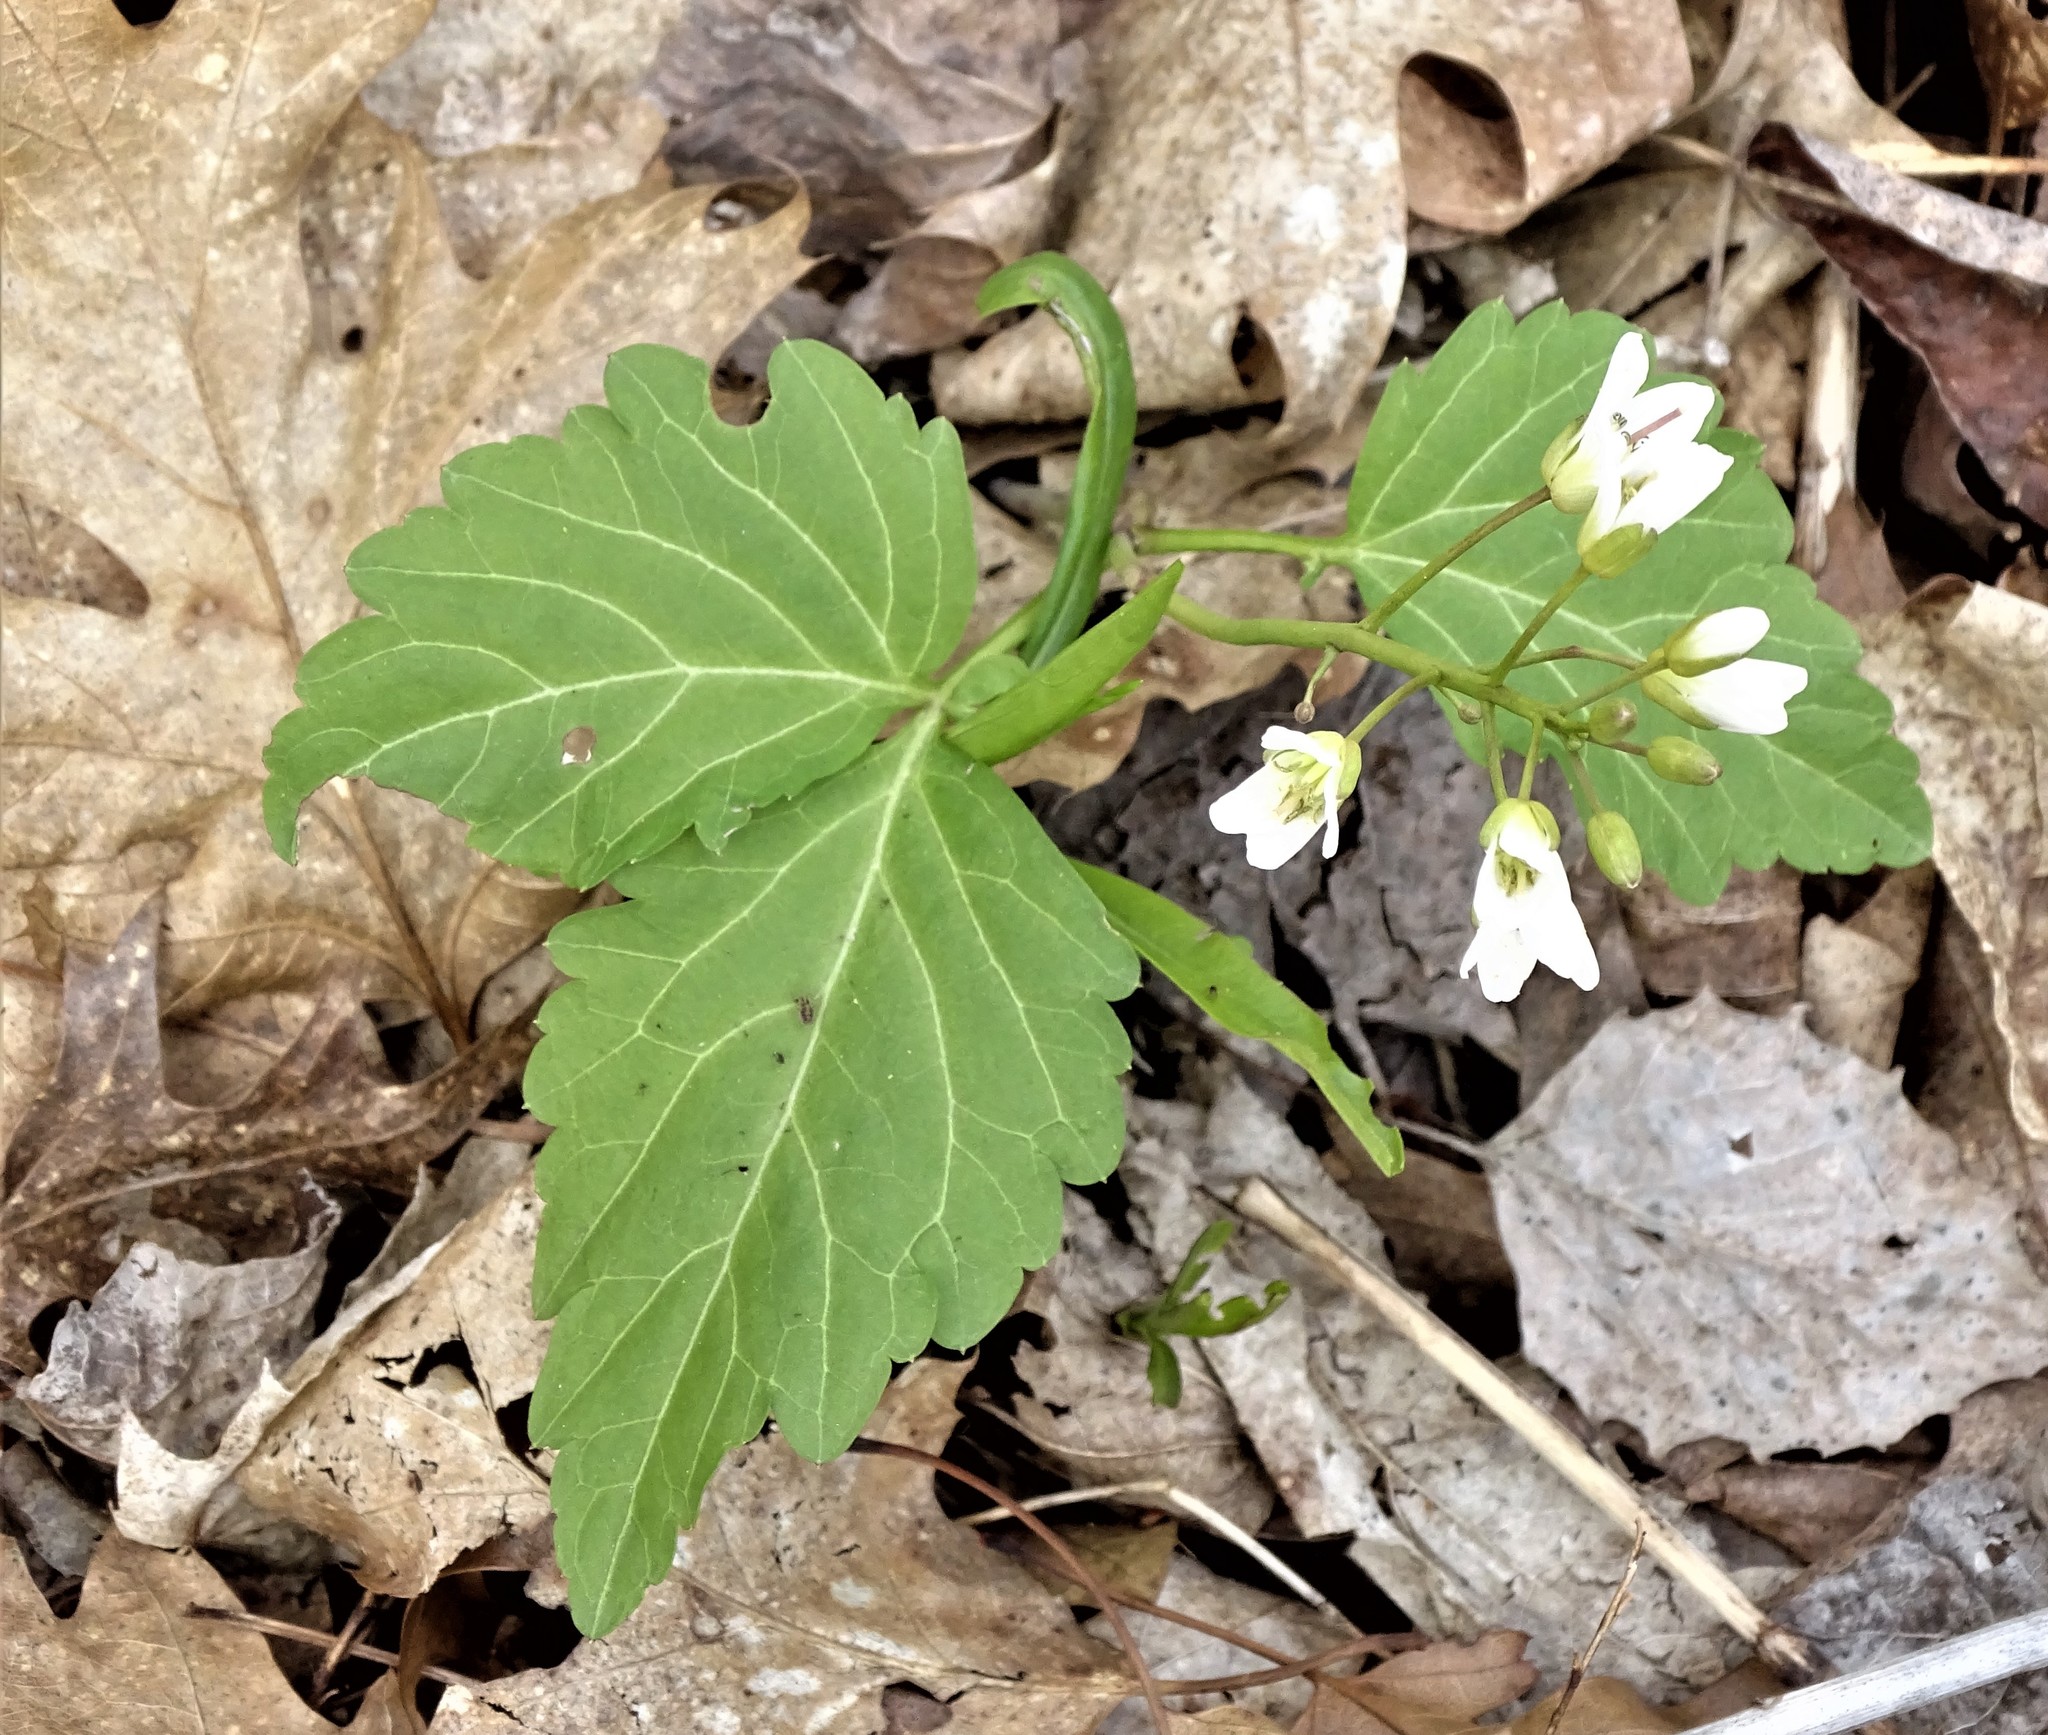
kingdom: Plantae
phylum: Tracheophyta
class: Magnoliopsida
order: Brassicales
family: Brassicaceae
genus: Cardamine
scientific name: Cardamine diphylla
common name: Broad-leaved toothwort
